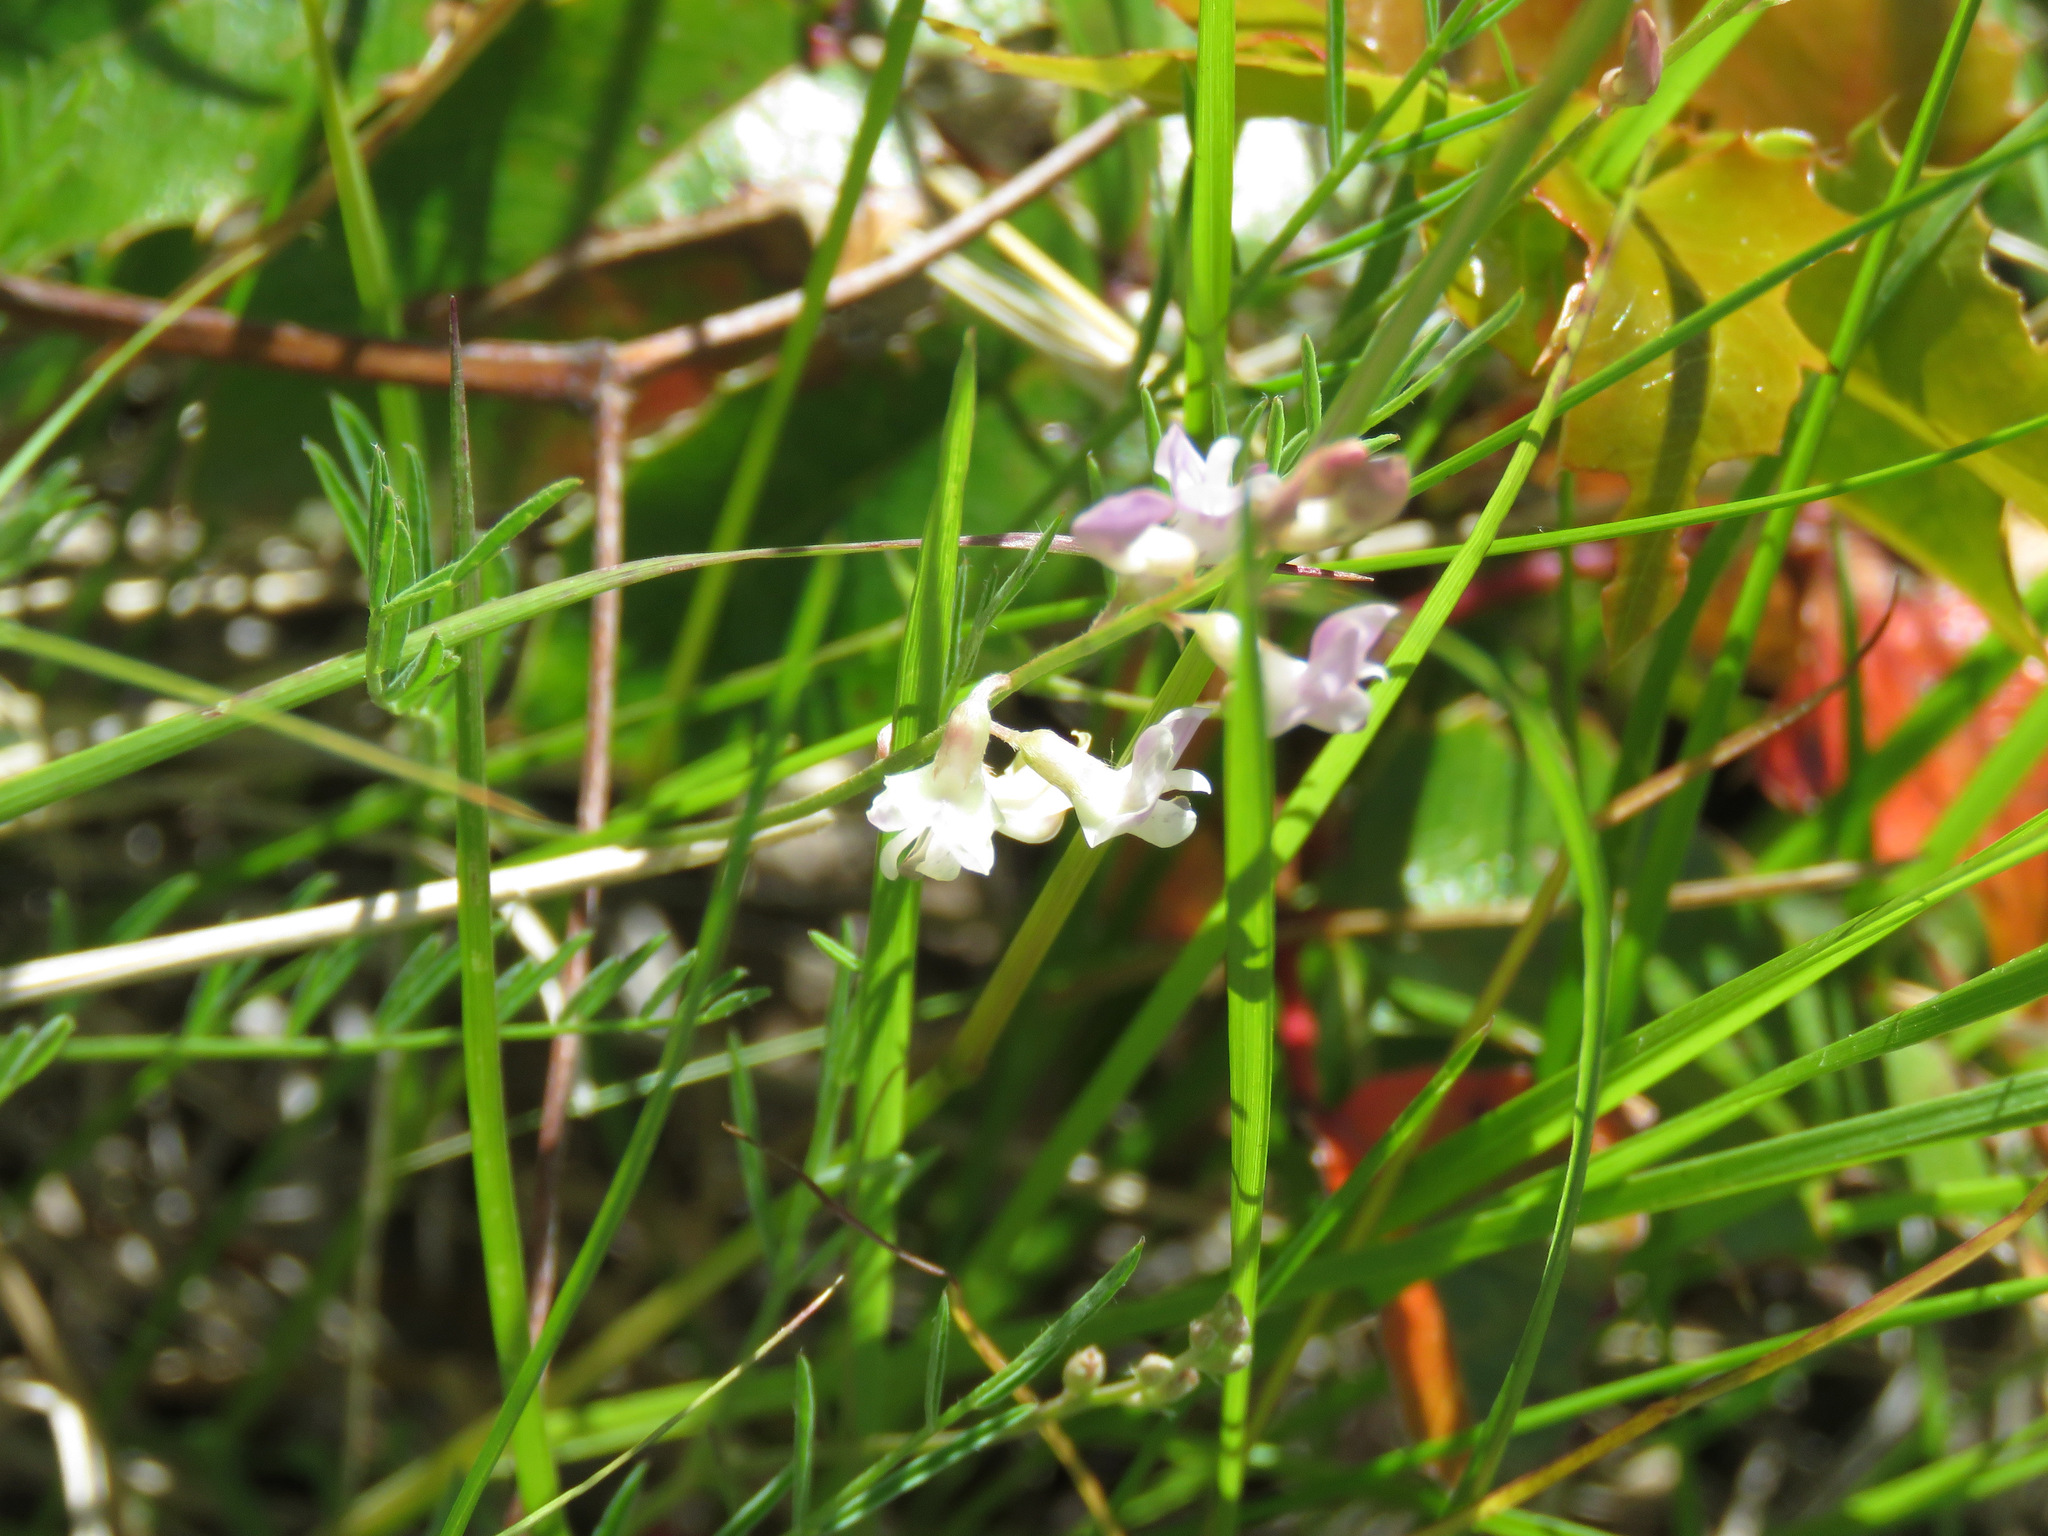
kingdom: Plantae
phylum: Tracheophyta
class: Magnoliopsida
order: Fabales
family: Fabaceae
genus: Astragalus
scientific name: Astragalus miser
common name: Timber milkvetch
